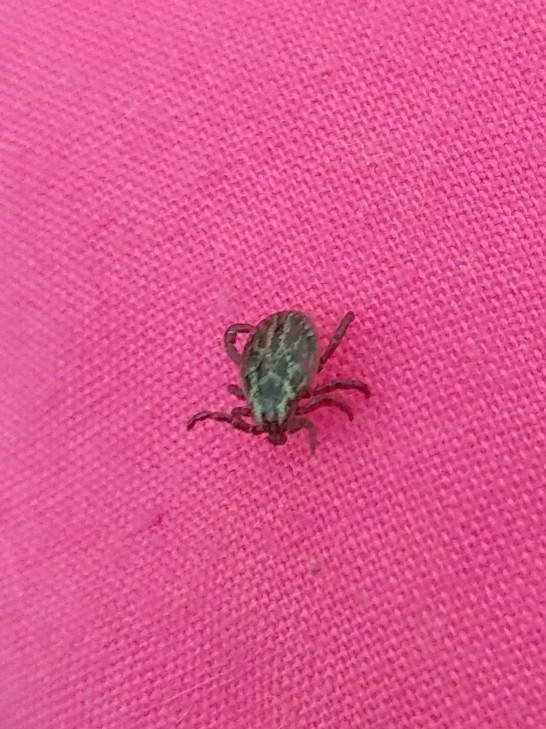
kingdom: Animalia
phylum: Arthropoda
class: Arachnida
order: Ixodida
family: Ixodidae
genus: Dermacentor
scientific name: Dermacentor reticulatus
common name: Ornate cow tick
